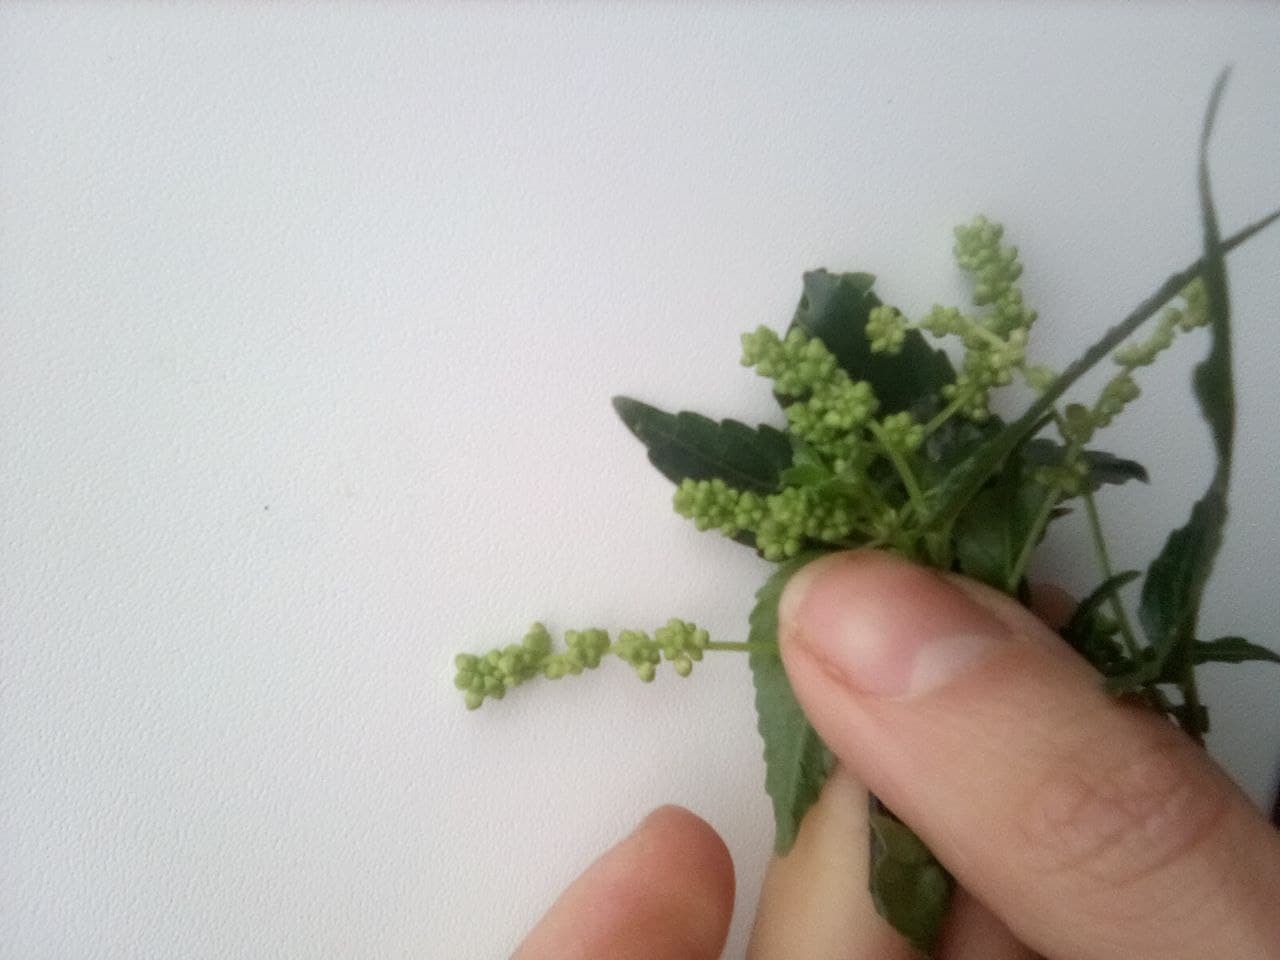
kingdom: Plantae
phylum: Tracheophyta
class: Magnoliopsida
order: Malpighiales
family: Euphorbiaceae
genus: Mercurialis
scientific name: Mercurialis annua
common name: Annual mercury
